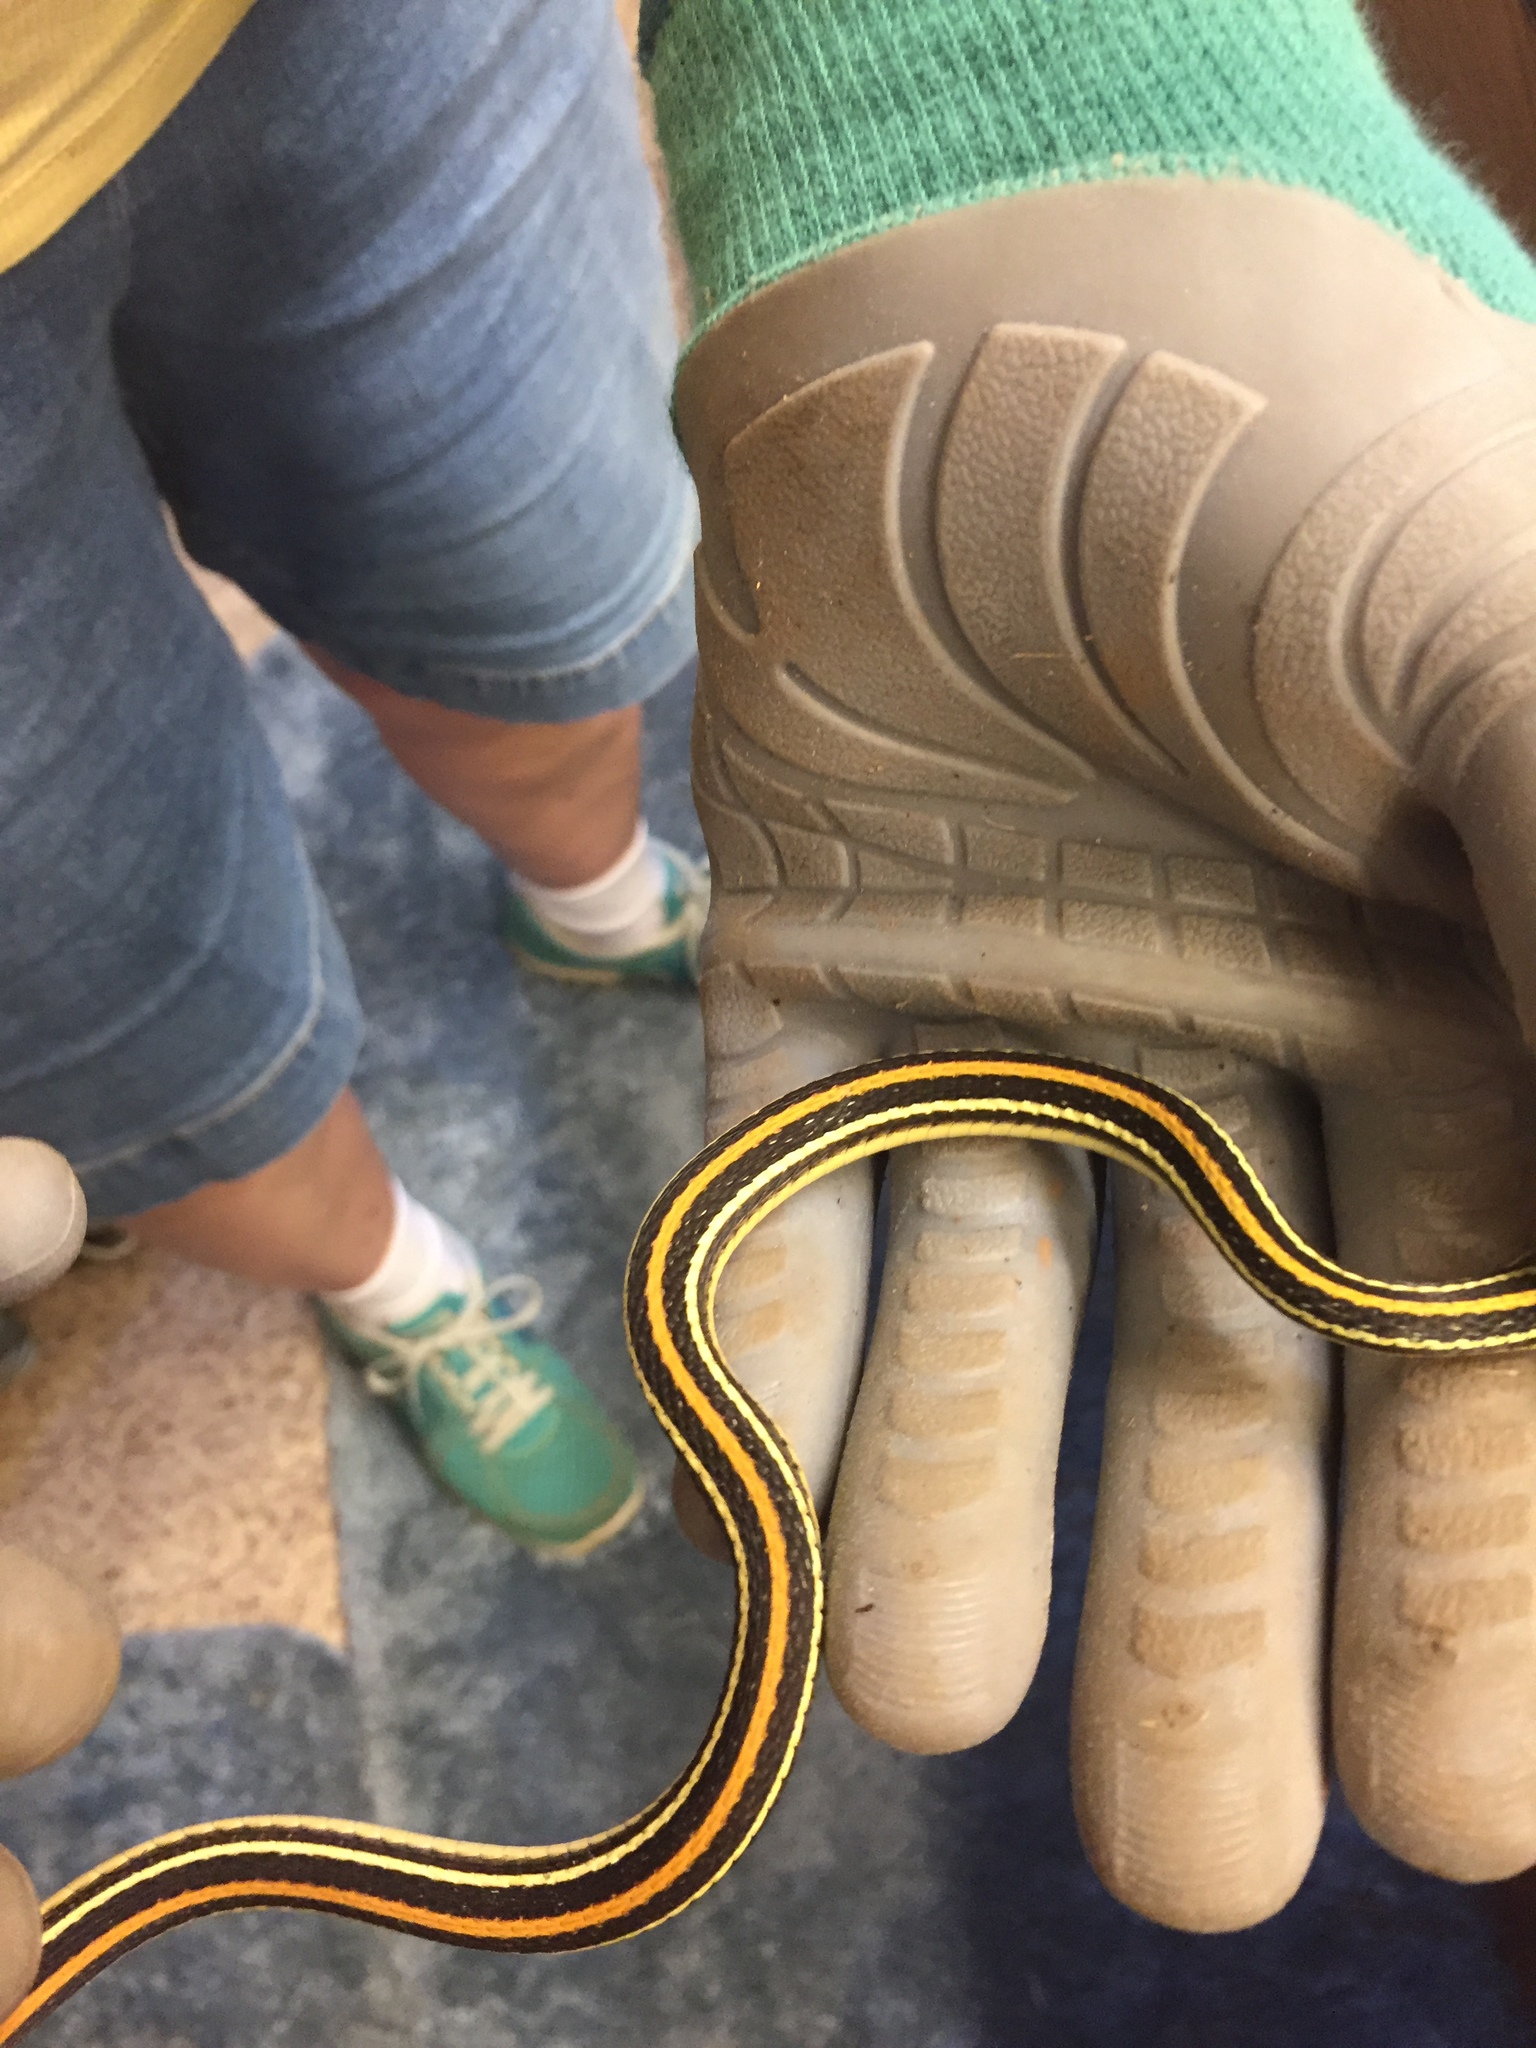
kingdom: Animalia
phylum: Chordata
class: Squamata
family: Colubridae
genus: Thamnophis
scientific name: Thamnophis proximus
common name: Western ribbon snake
